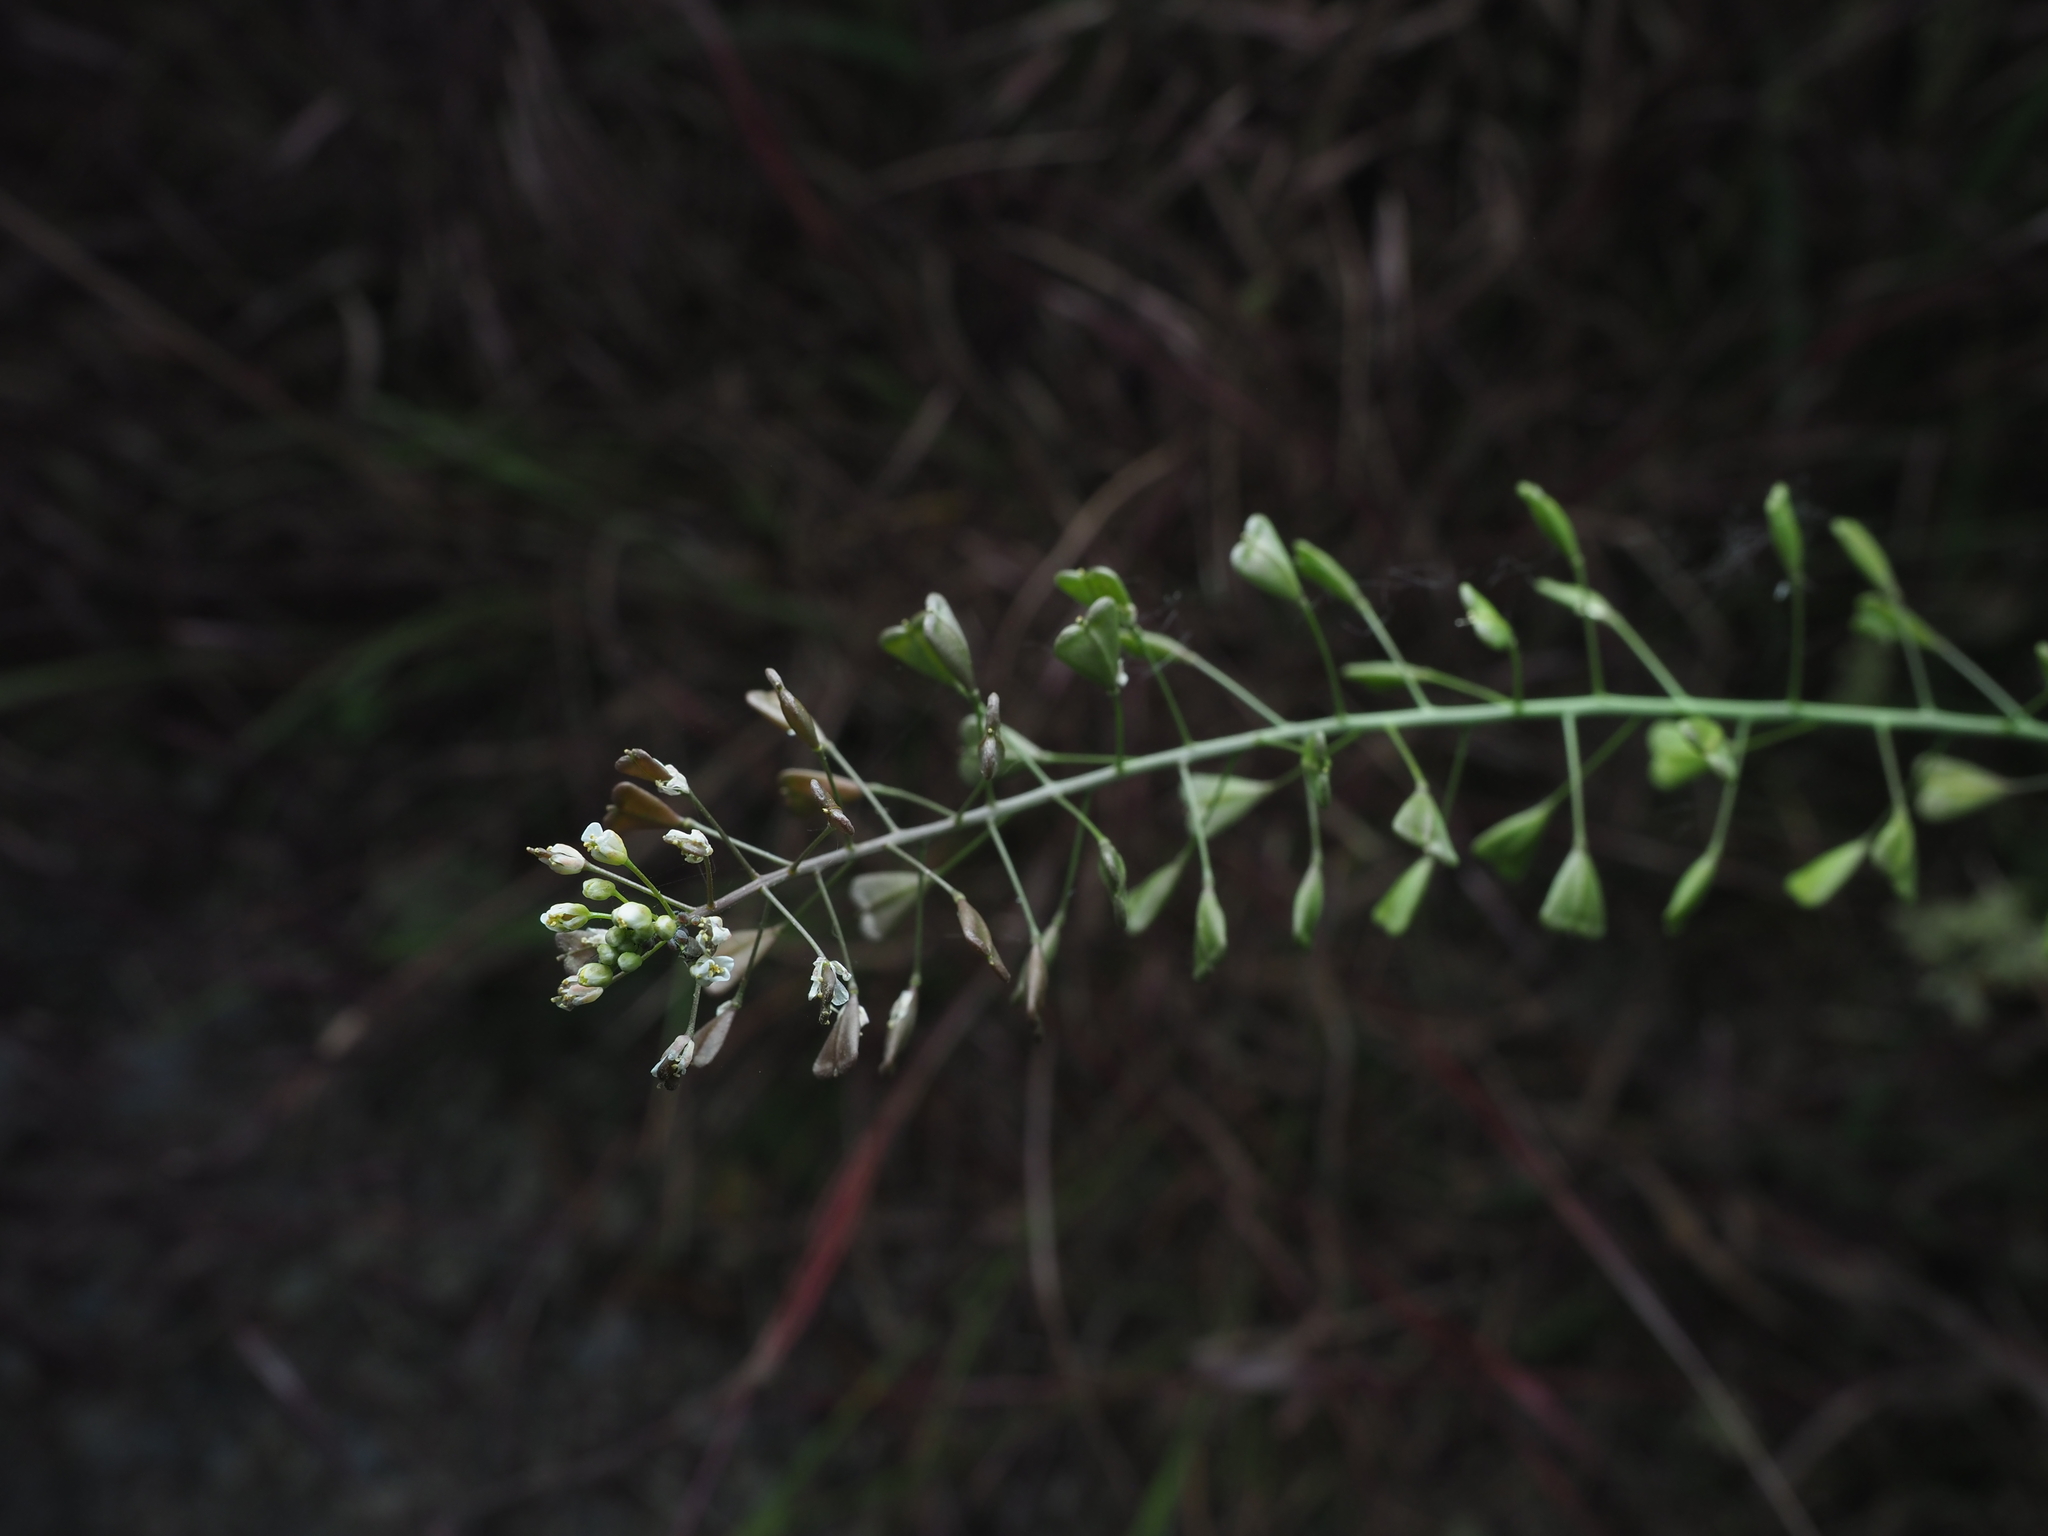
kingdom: Plantae
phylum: Tracheophyta
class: Magnoliopsida
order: Brassicales
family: Brassicaceae
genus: Capsella
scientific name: Capsella bursa-pastoris
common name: Shepherd's purse
